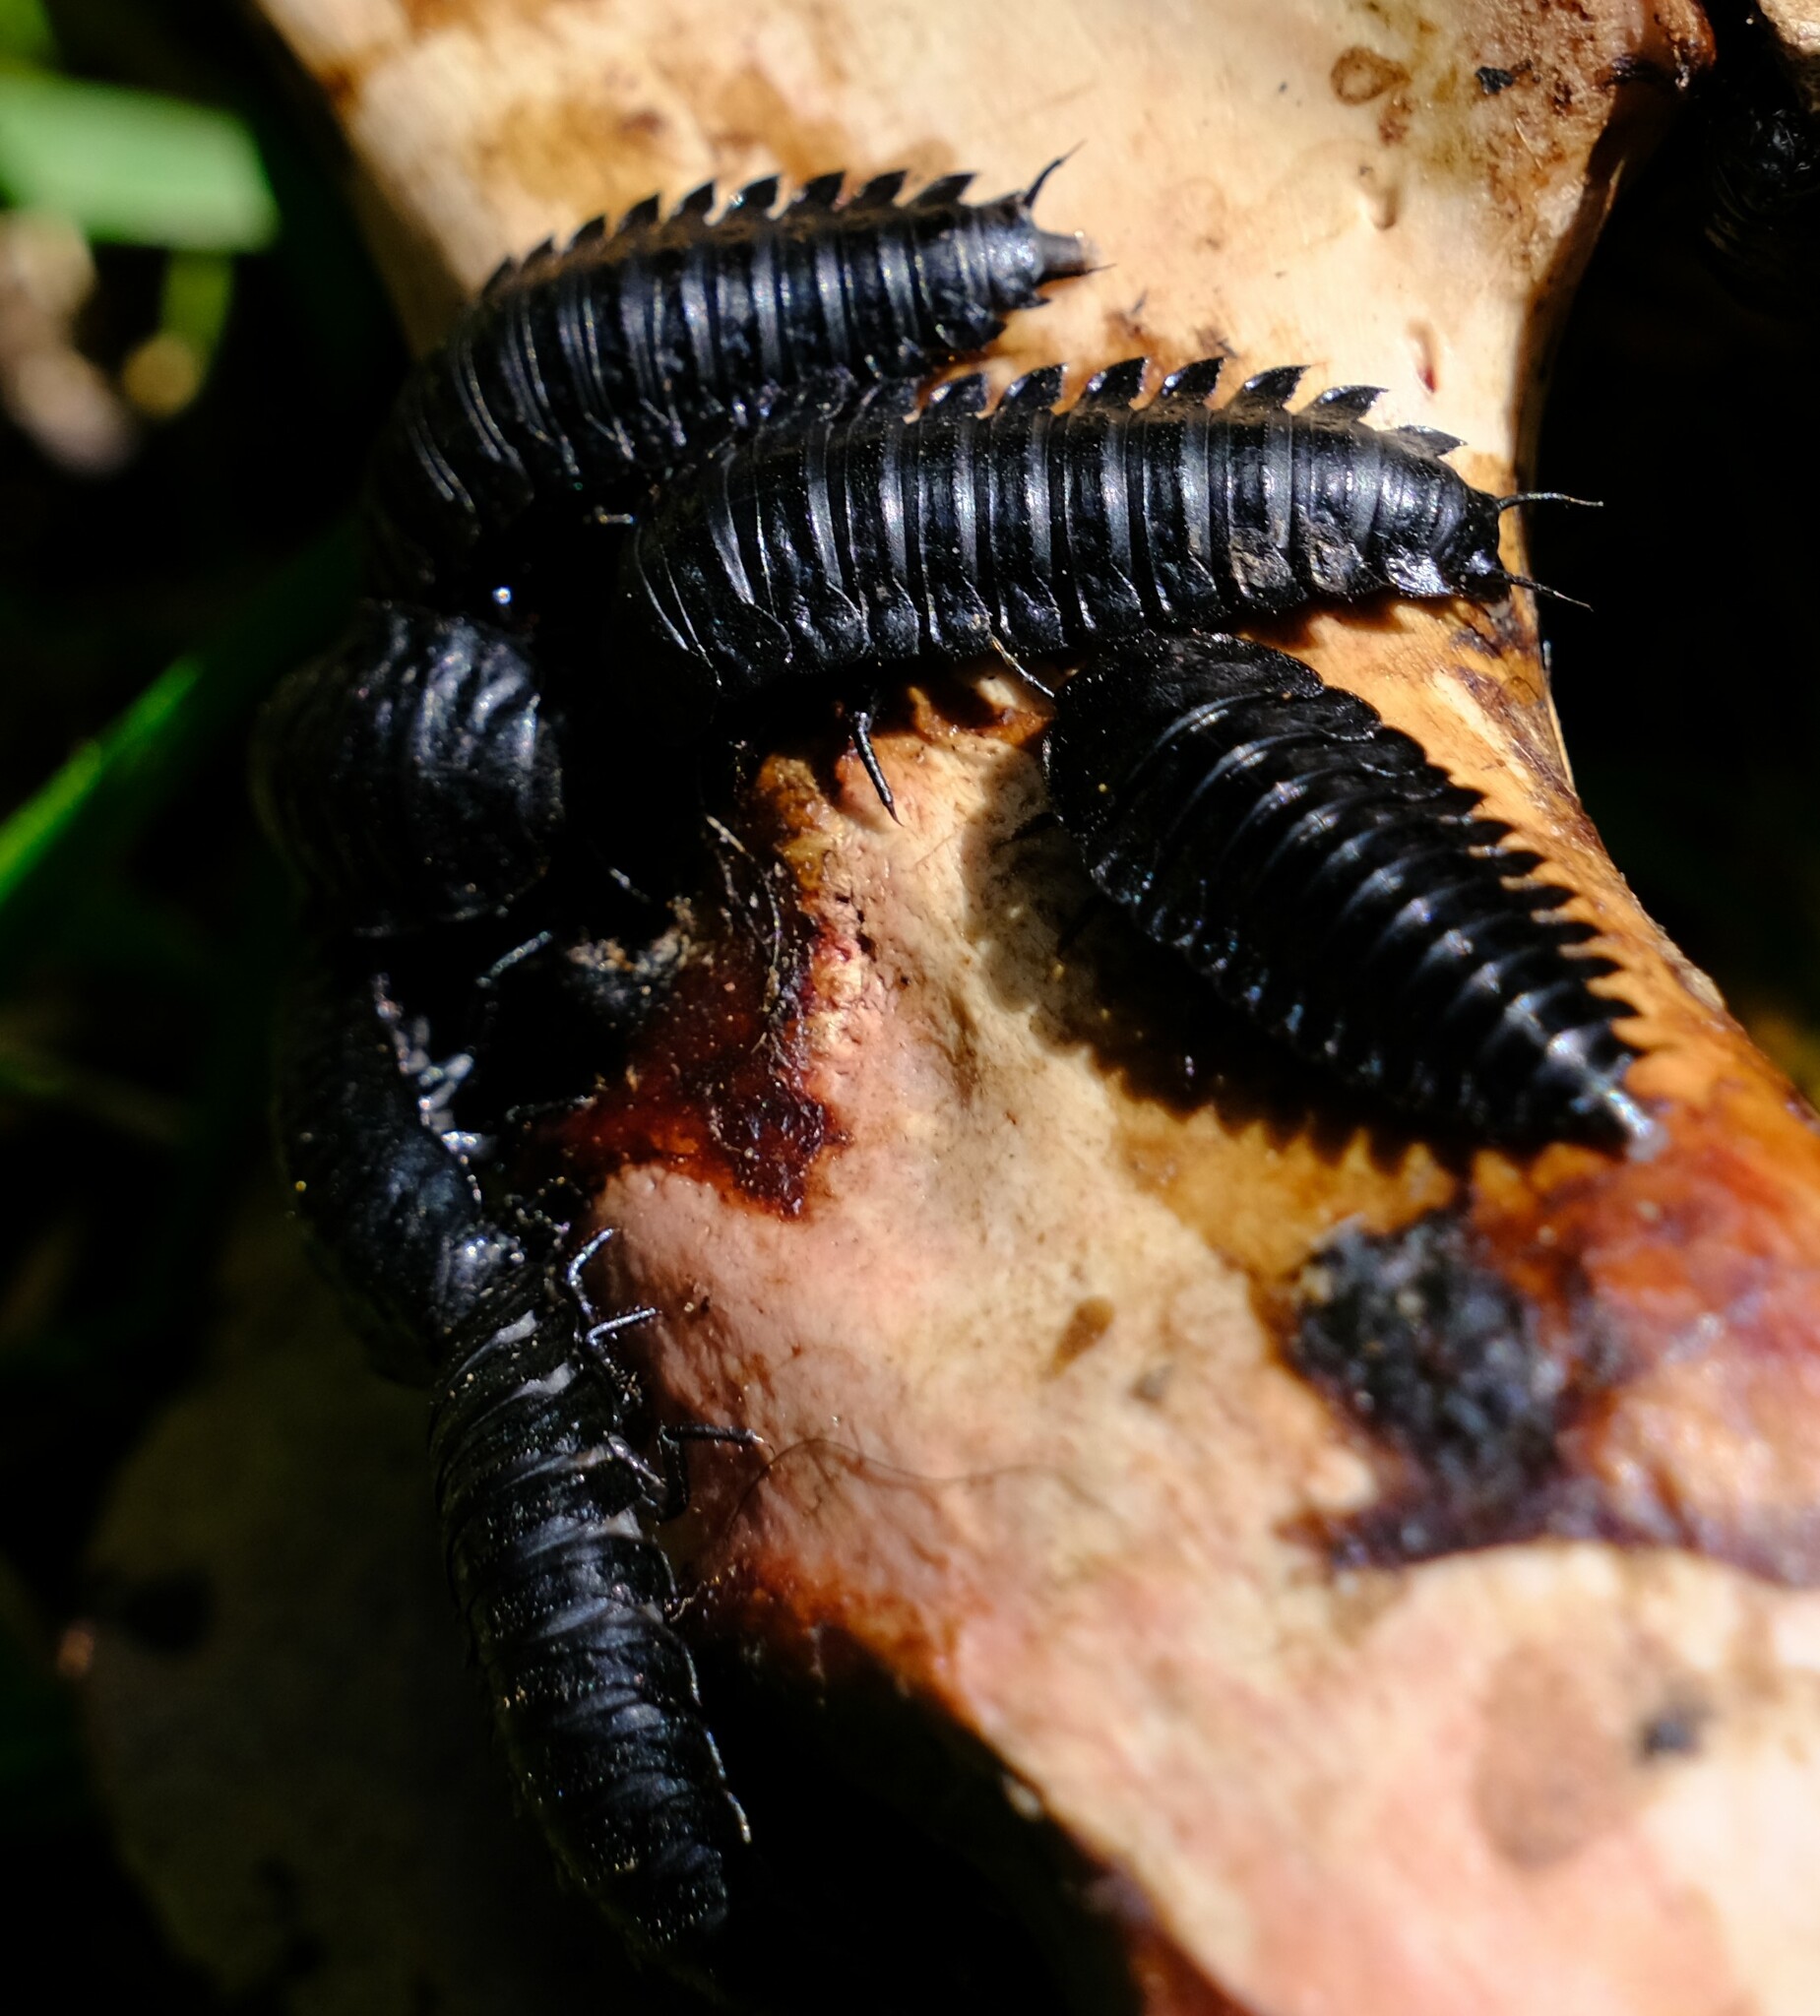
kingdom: Animalia
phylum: Arthropoda
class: Insecta
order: Coleoptera
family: Staphylinidae
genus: Ptomaphila
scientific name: Ptomaphila lacrymosa
